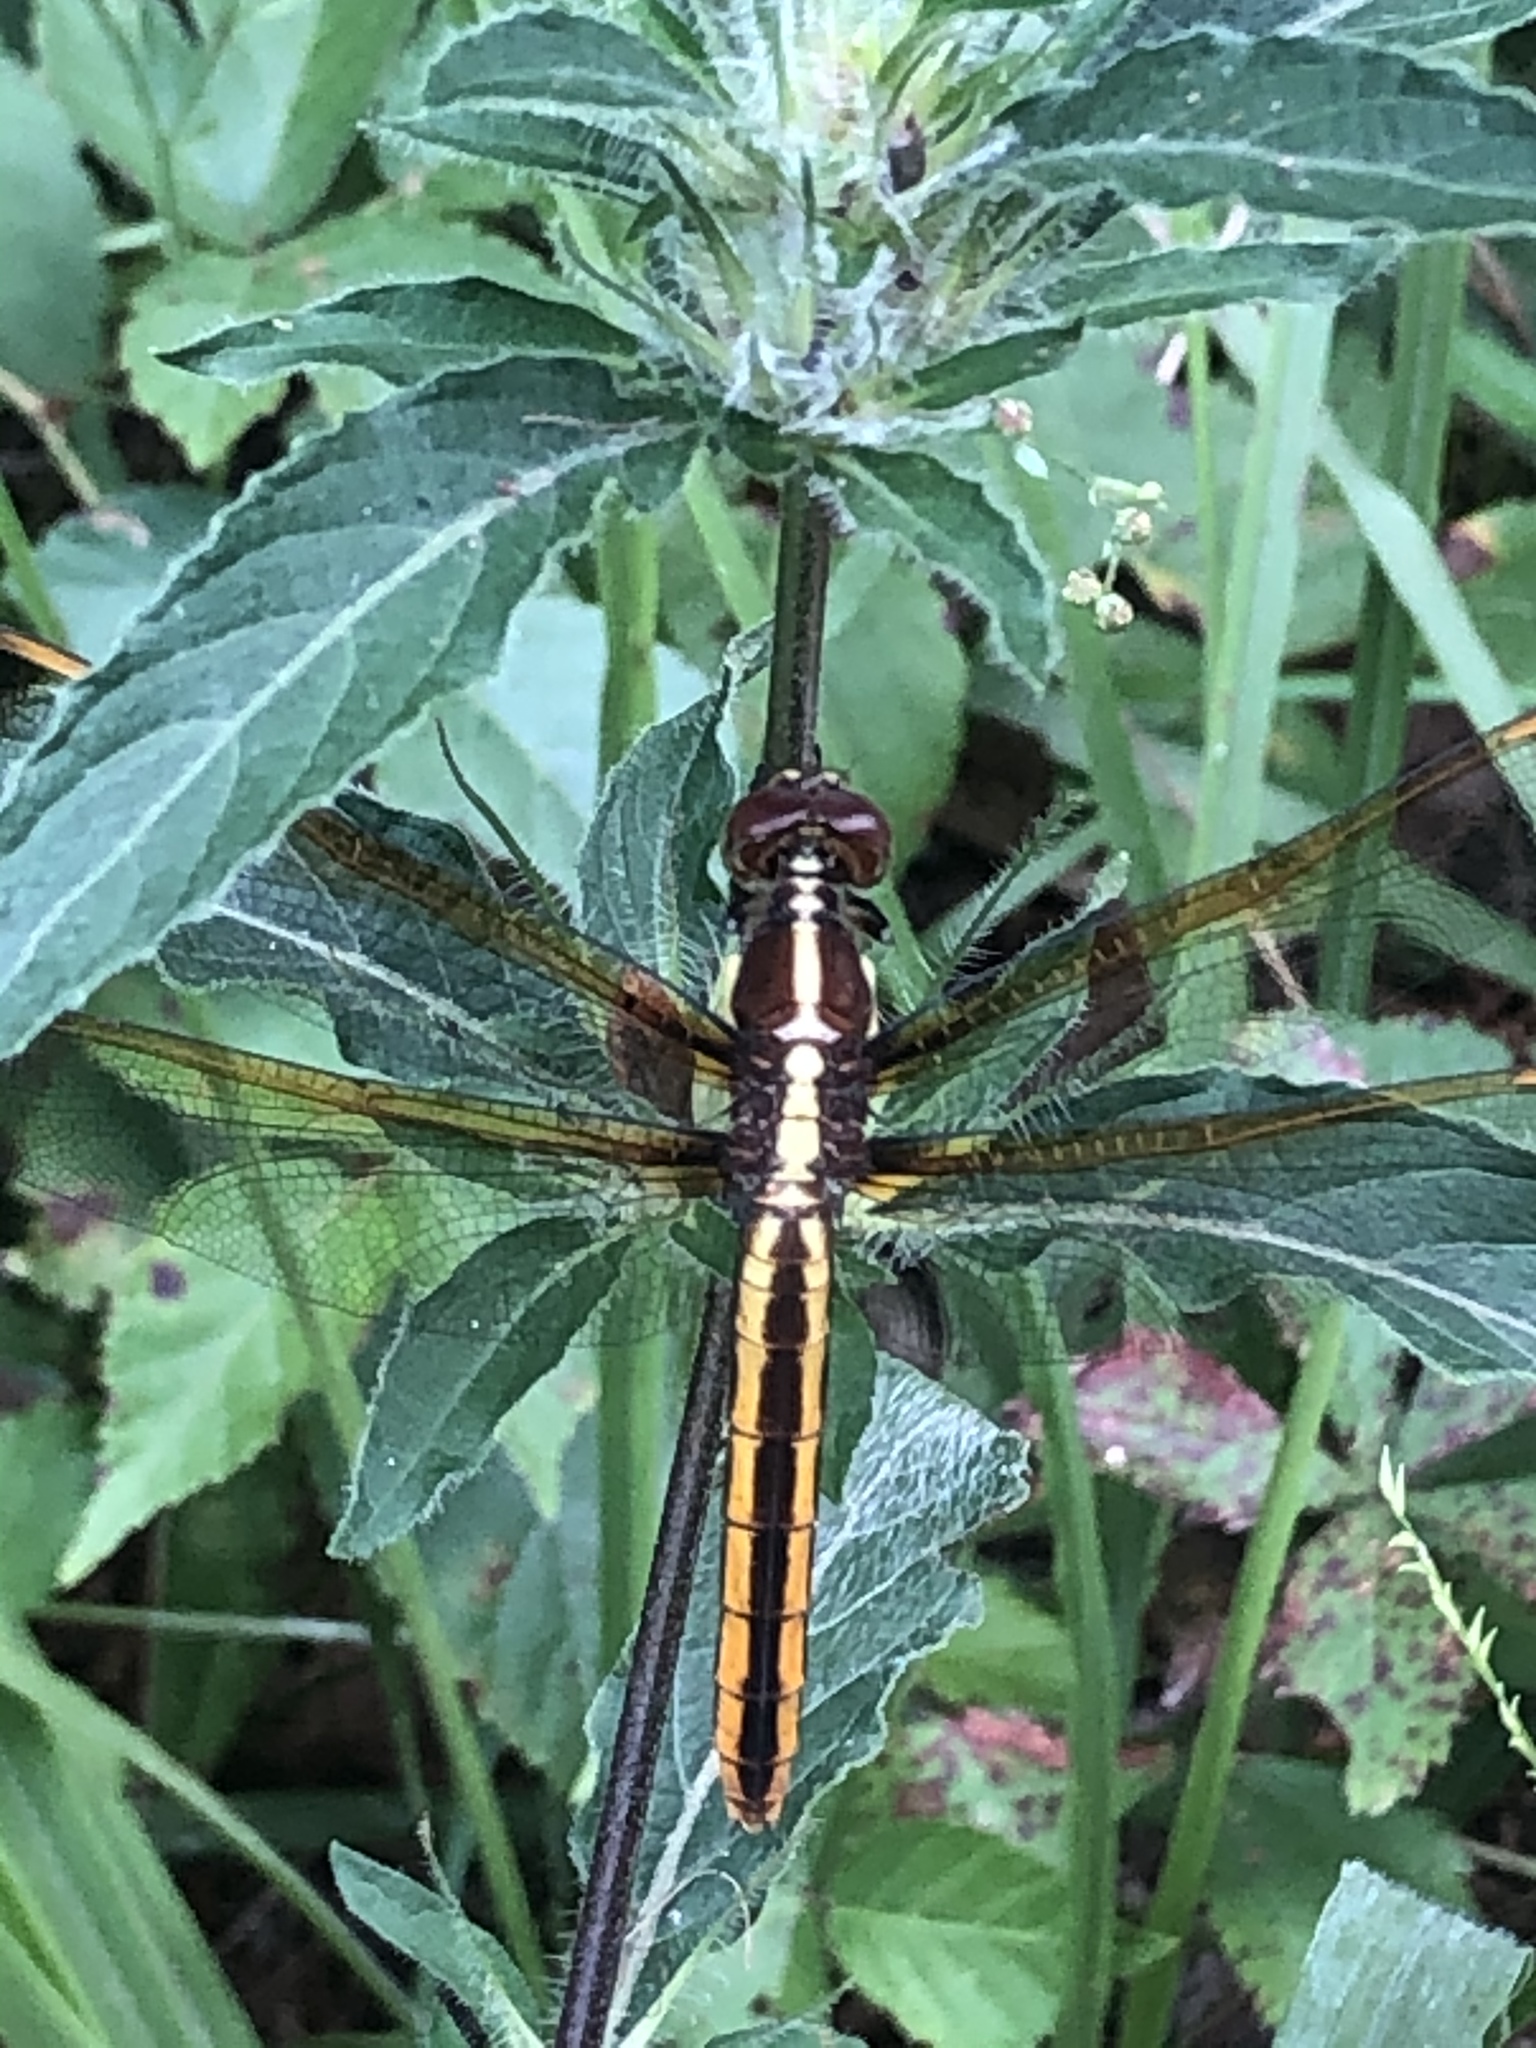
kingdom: Animalia
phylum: Arthropoda
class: Insecta
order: Odonata
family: Libellulidae
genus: Libellula
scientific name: Libellula flavida
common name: Yellow-sided skimmer
